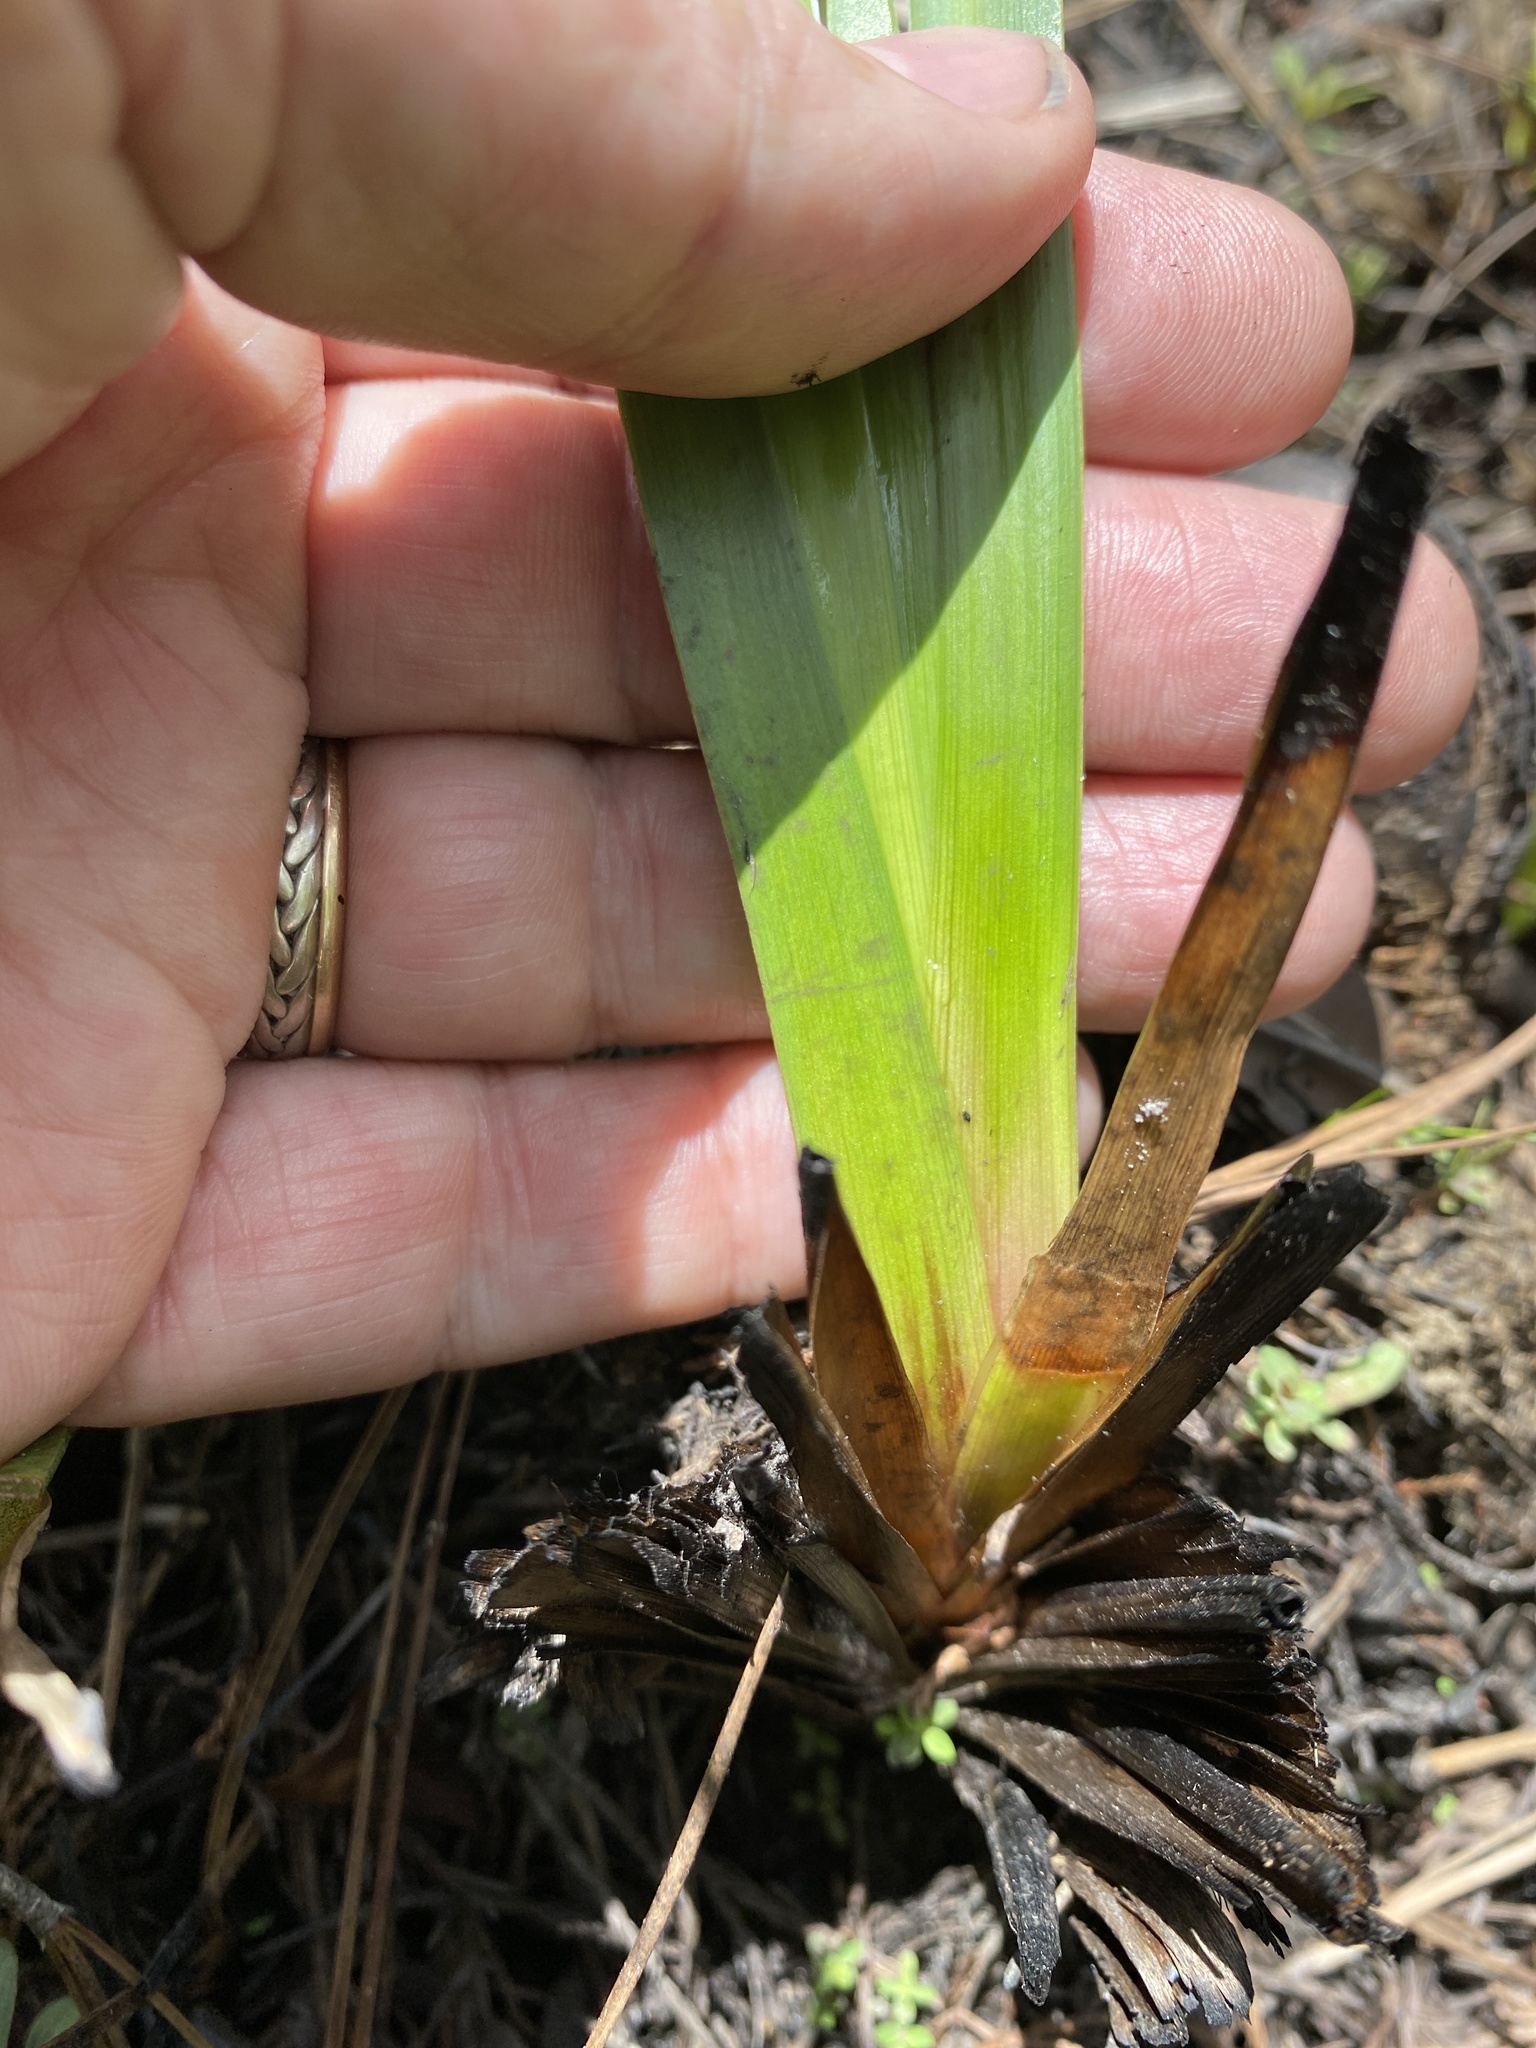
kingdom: Plantae
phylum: Tracheophyta
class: Liliopsida
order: Poales
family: Xyridaceae
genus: Xyris
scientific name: Xyris ambigua
